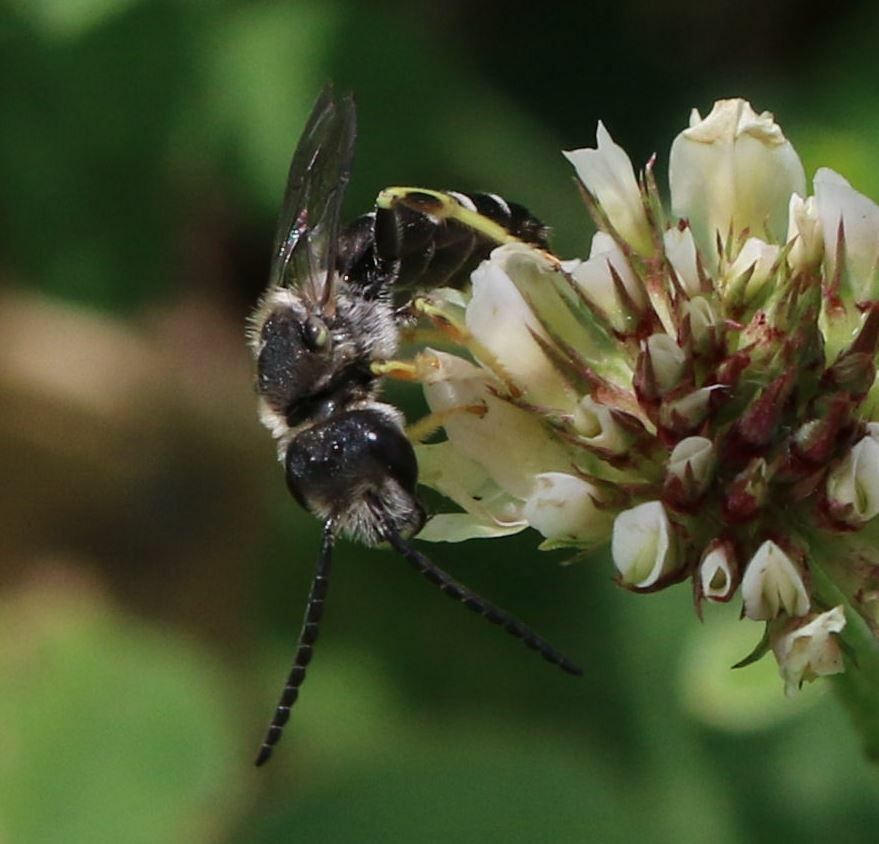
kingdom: Animalia
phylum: Arthropoda
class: Insecta
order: Hymenoptera
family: Halictidae
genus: Halictus
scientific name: Halictus langobardicus
